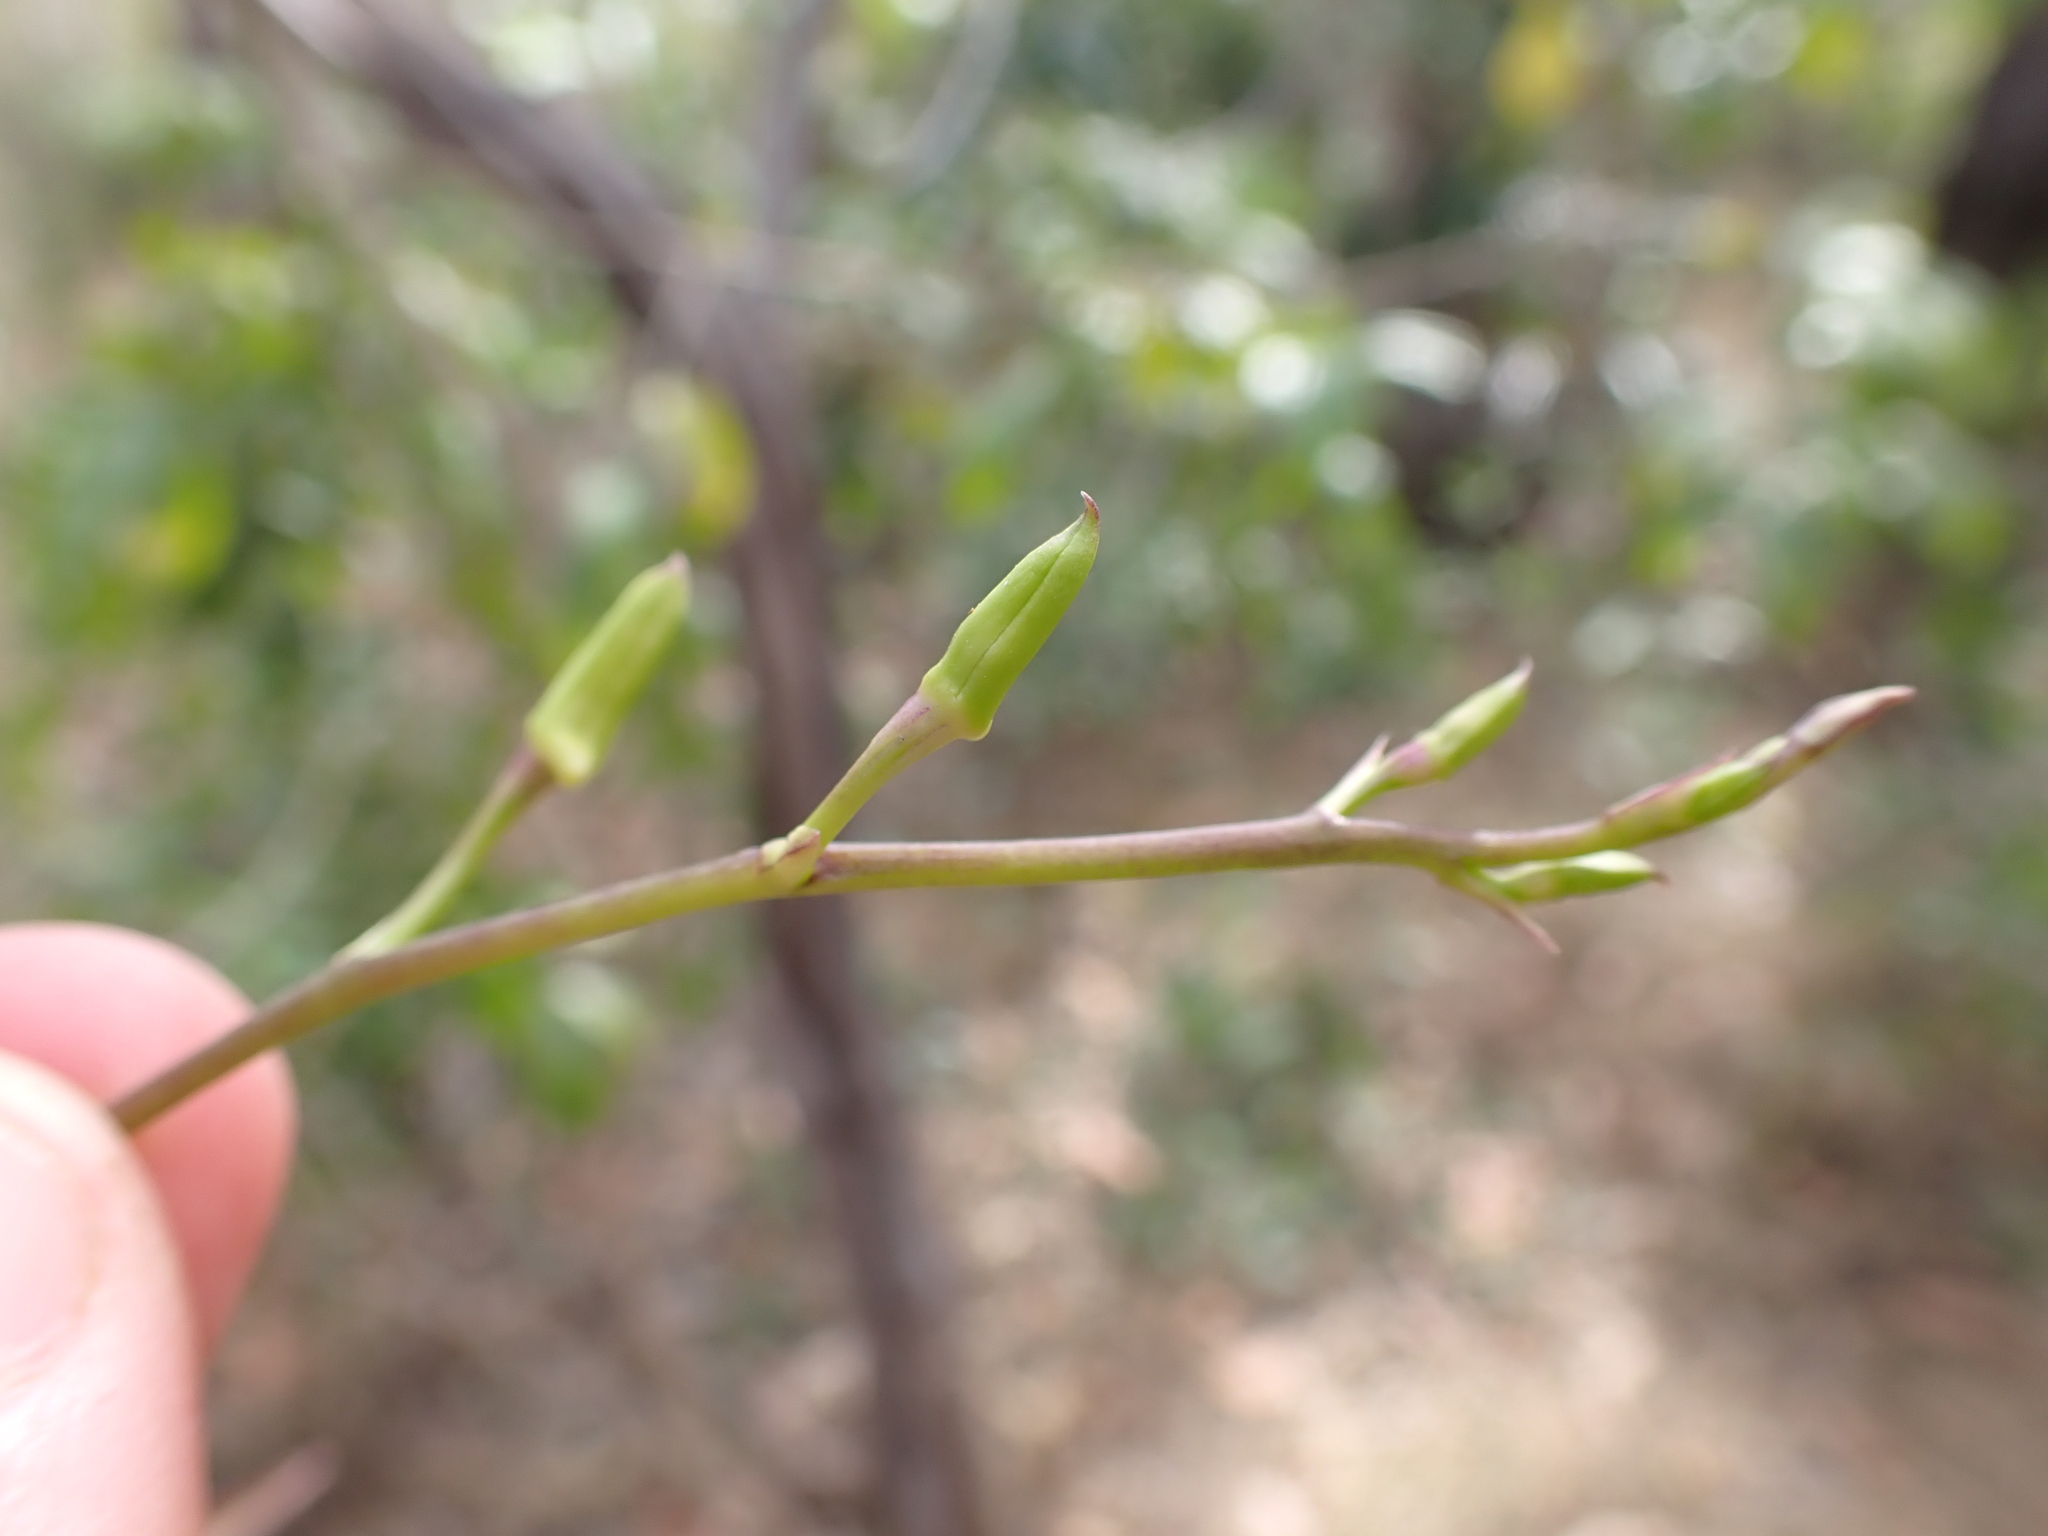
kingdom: Plantae
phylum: Tracheophyta
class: Liliopsida
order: Asparagales
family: Orchidaceae
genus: Dendrobium
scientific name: Dendrobium affine
